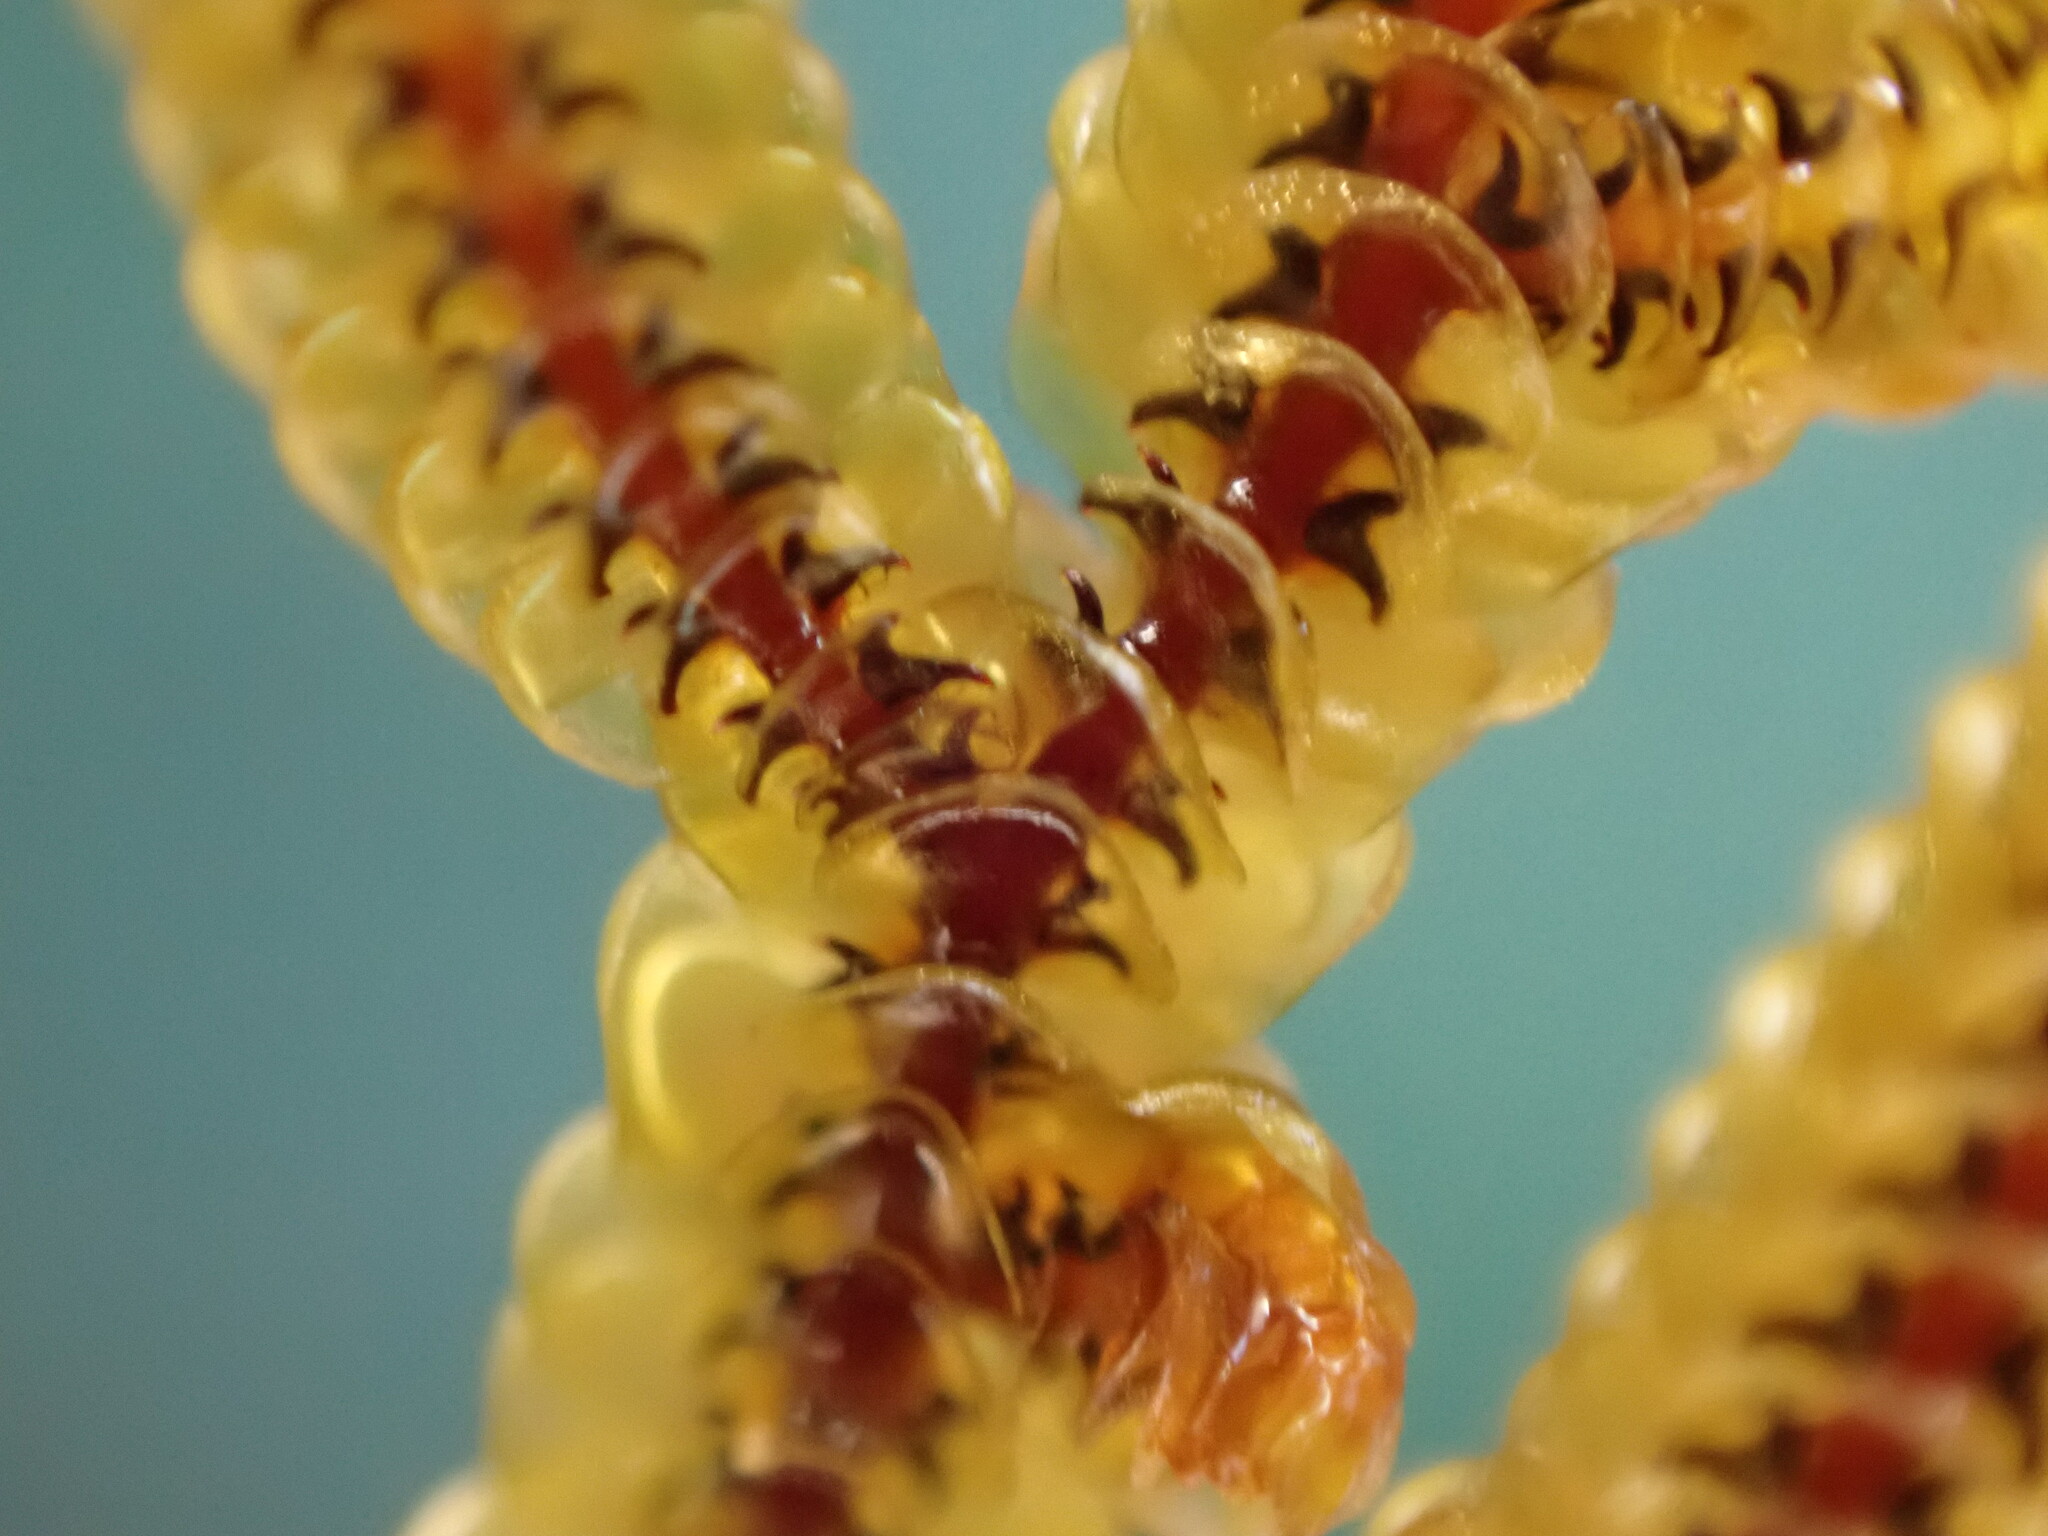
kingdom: Plantae
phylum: Marchantiophyta
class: Jungermanniopsida
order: Porellales
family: Goebeliellaceae
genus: Goebeliella
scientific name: Goebeliella cornigera
